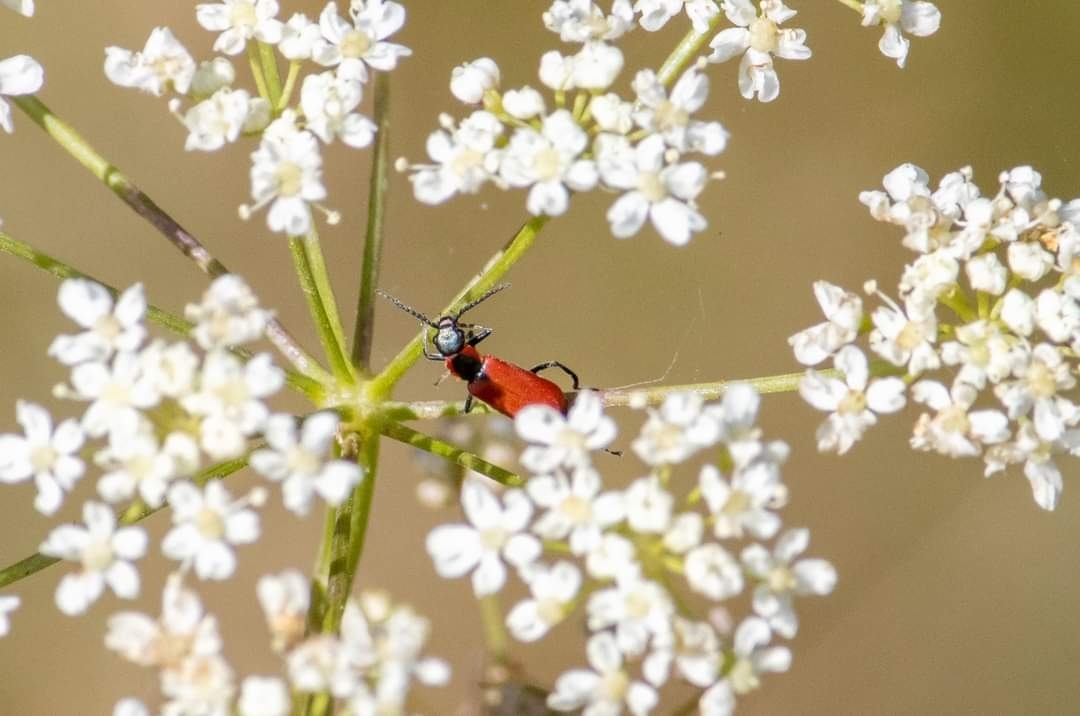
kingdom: Animalia
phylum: Arthropoda
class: Insecta
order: Coleoptera
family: Melyridae
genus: Anthocomus
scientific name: Anthocomus rufus
